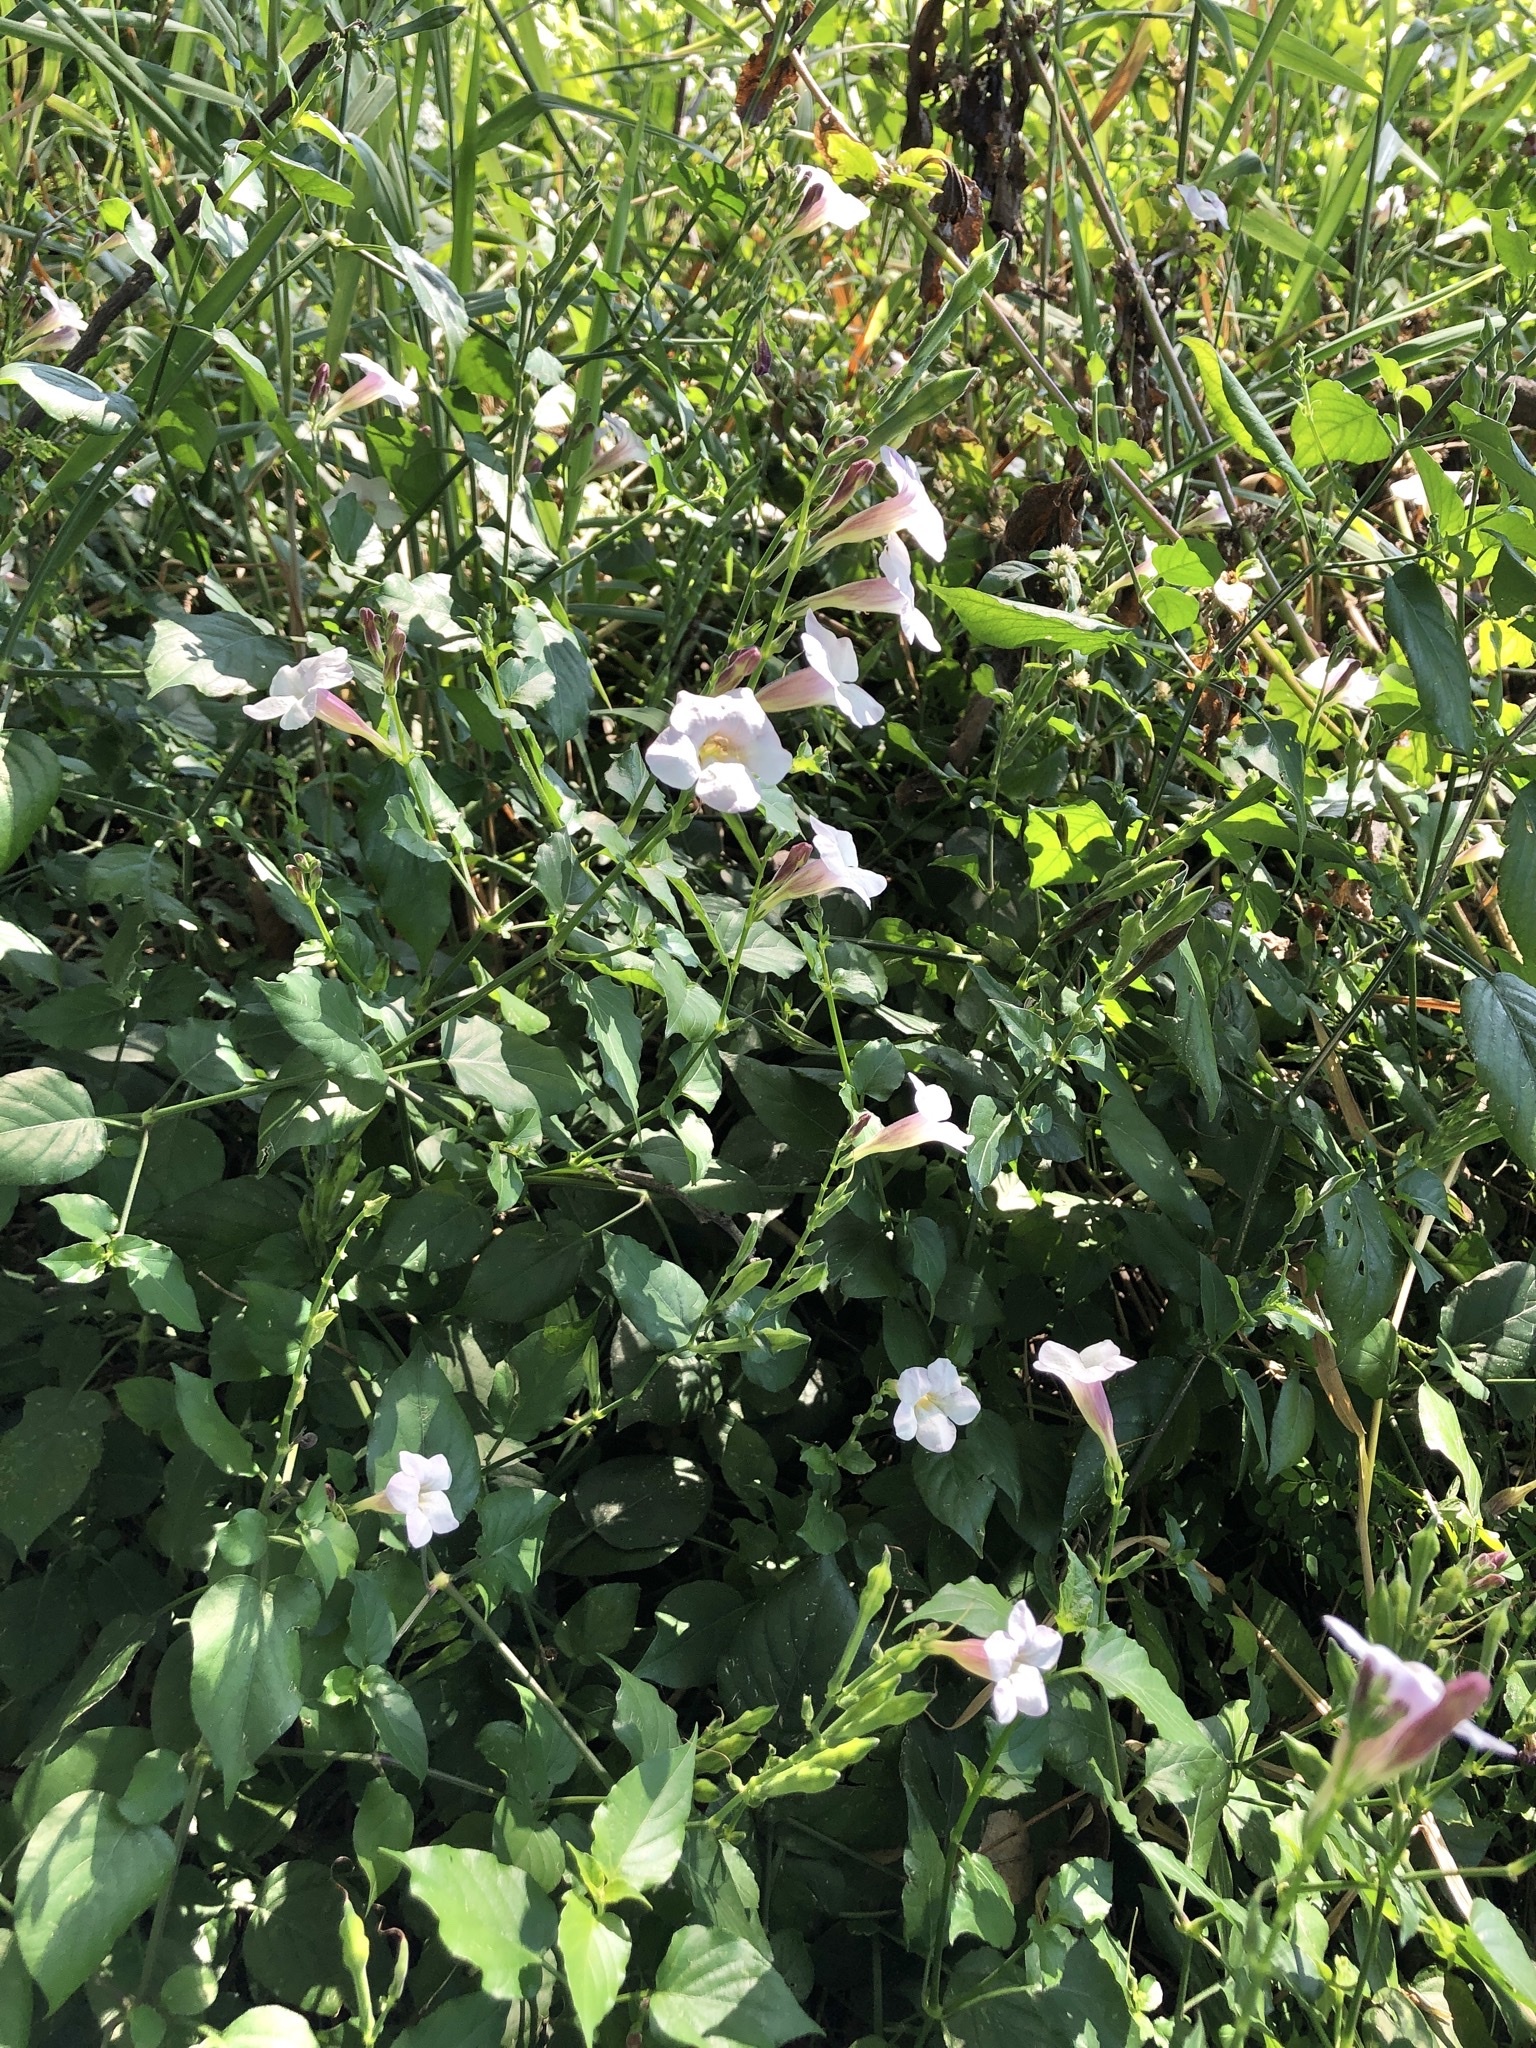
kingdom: Plantae
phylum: Tracheophyta
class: Magnoliopsida
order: Lamiales
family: Acanthaceae
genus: Asystasia
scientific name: Asystasia gangetica
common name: Chinese violet
